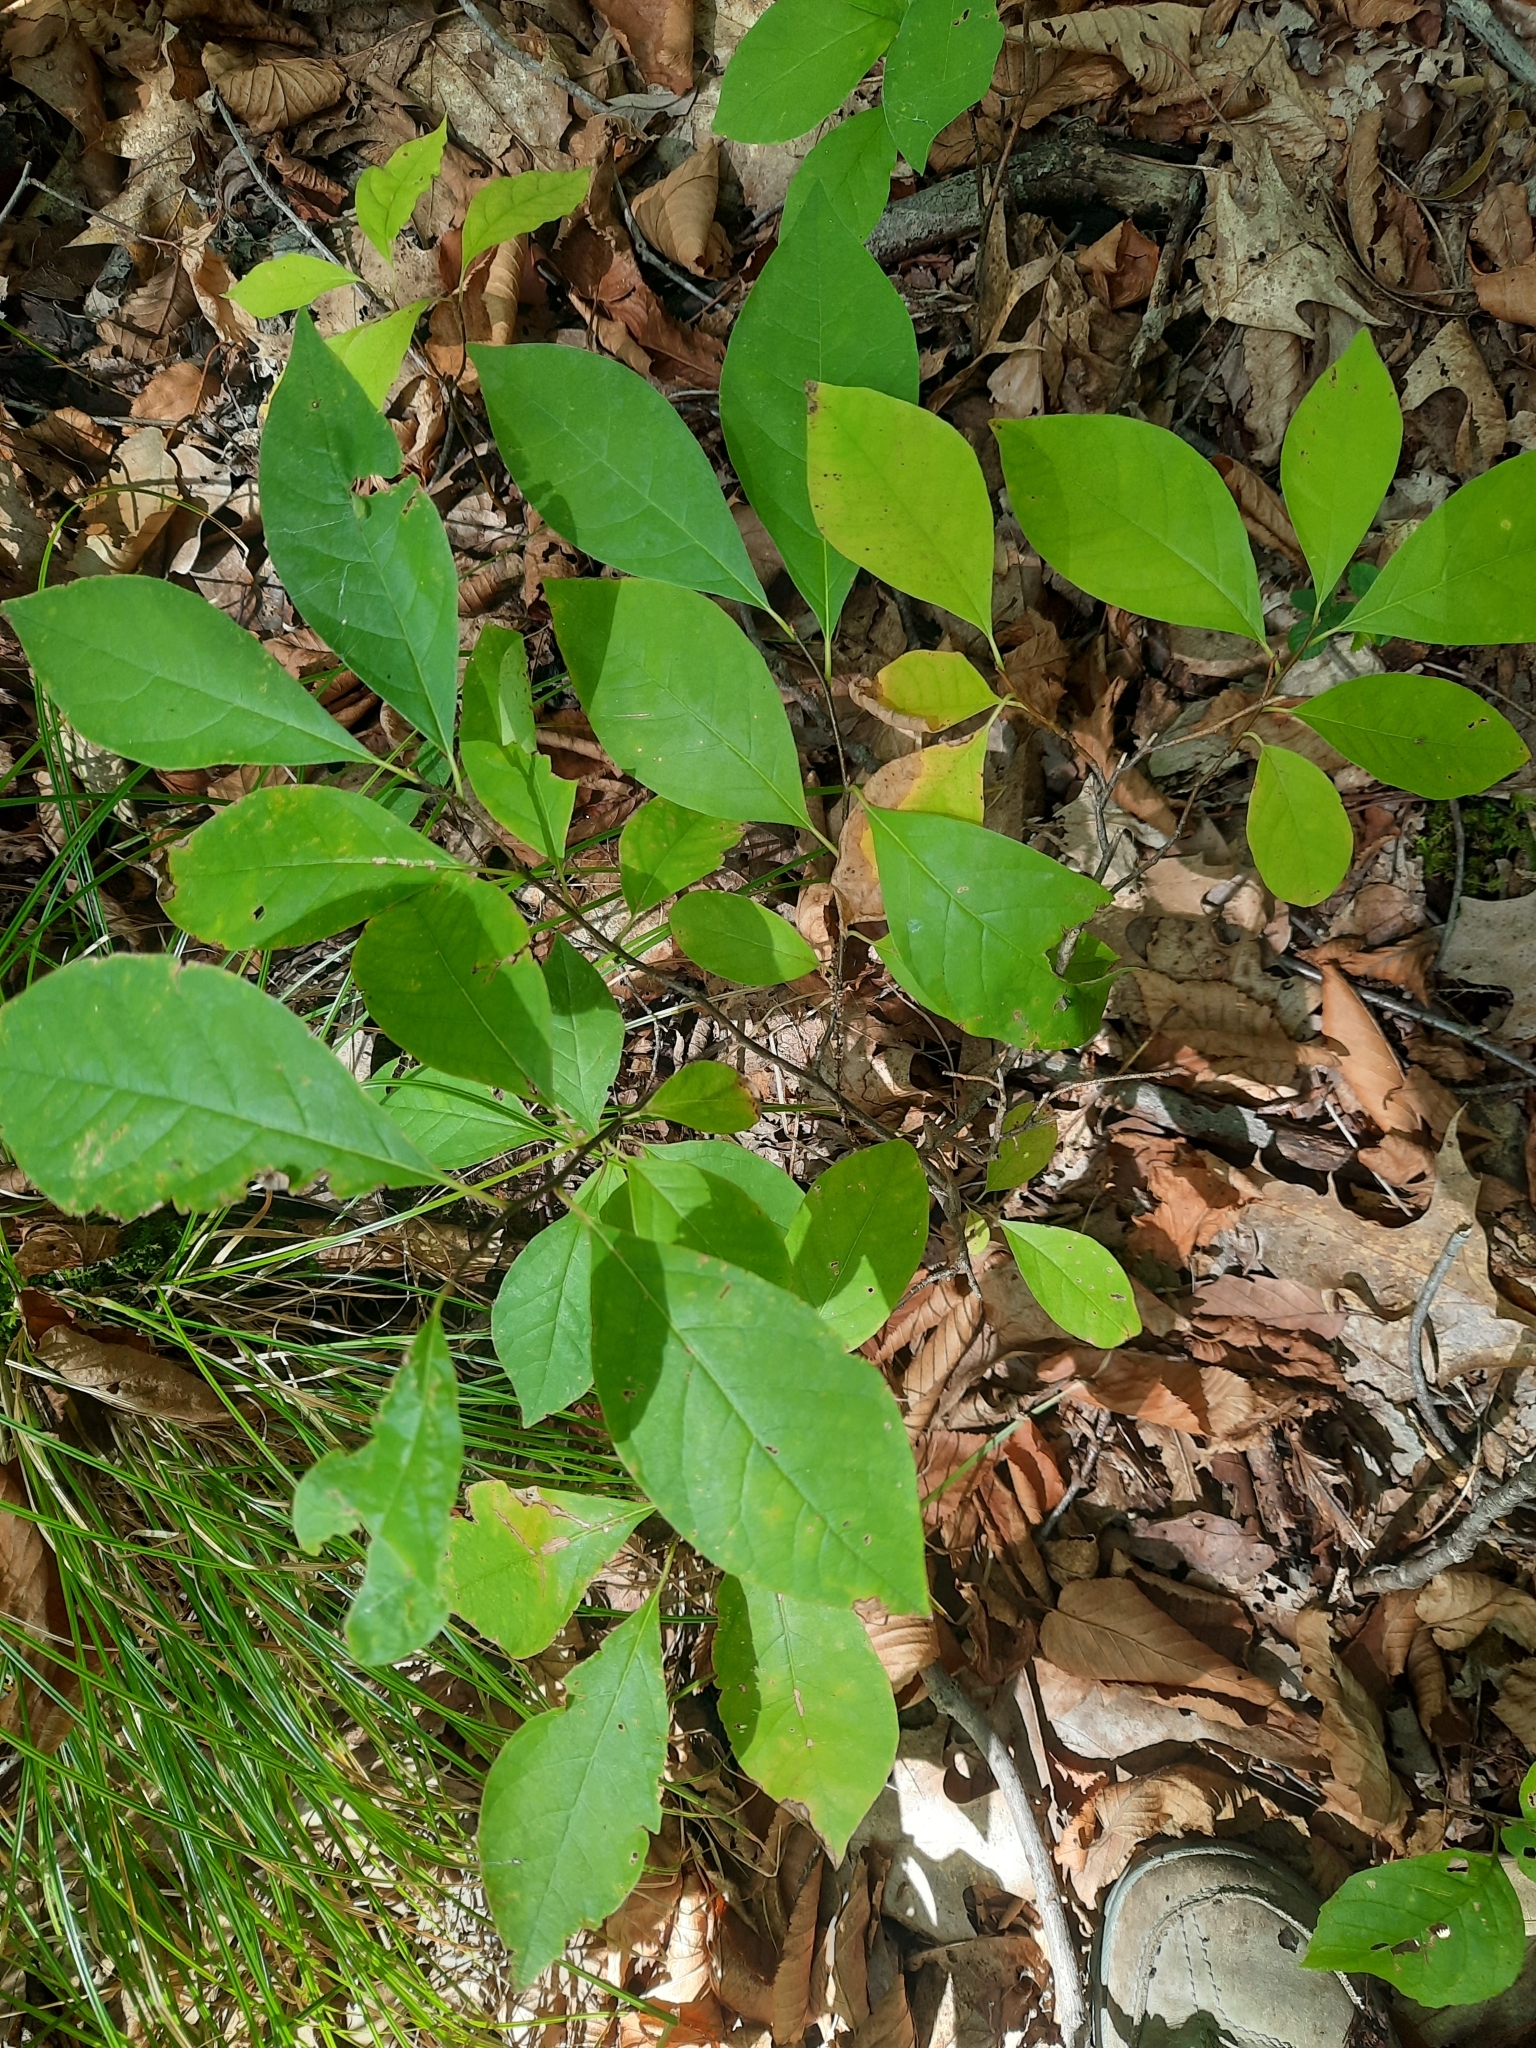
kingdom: Plantae
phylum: Tracheophyta
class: Magnoliopsida
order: Laurales
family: Lauraceae
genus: Lindera
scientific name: Lindera benzoin
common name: Spicebush
